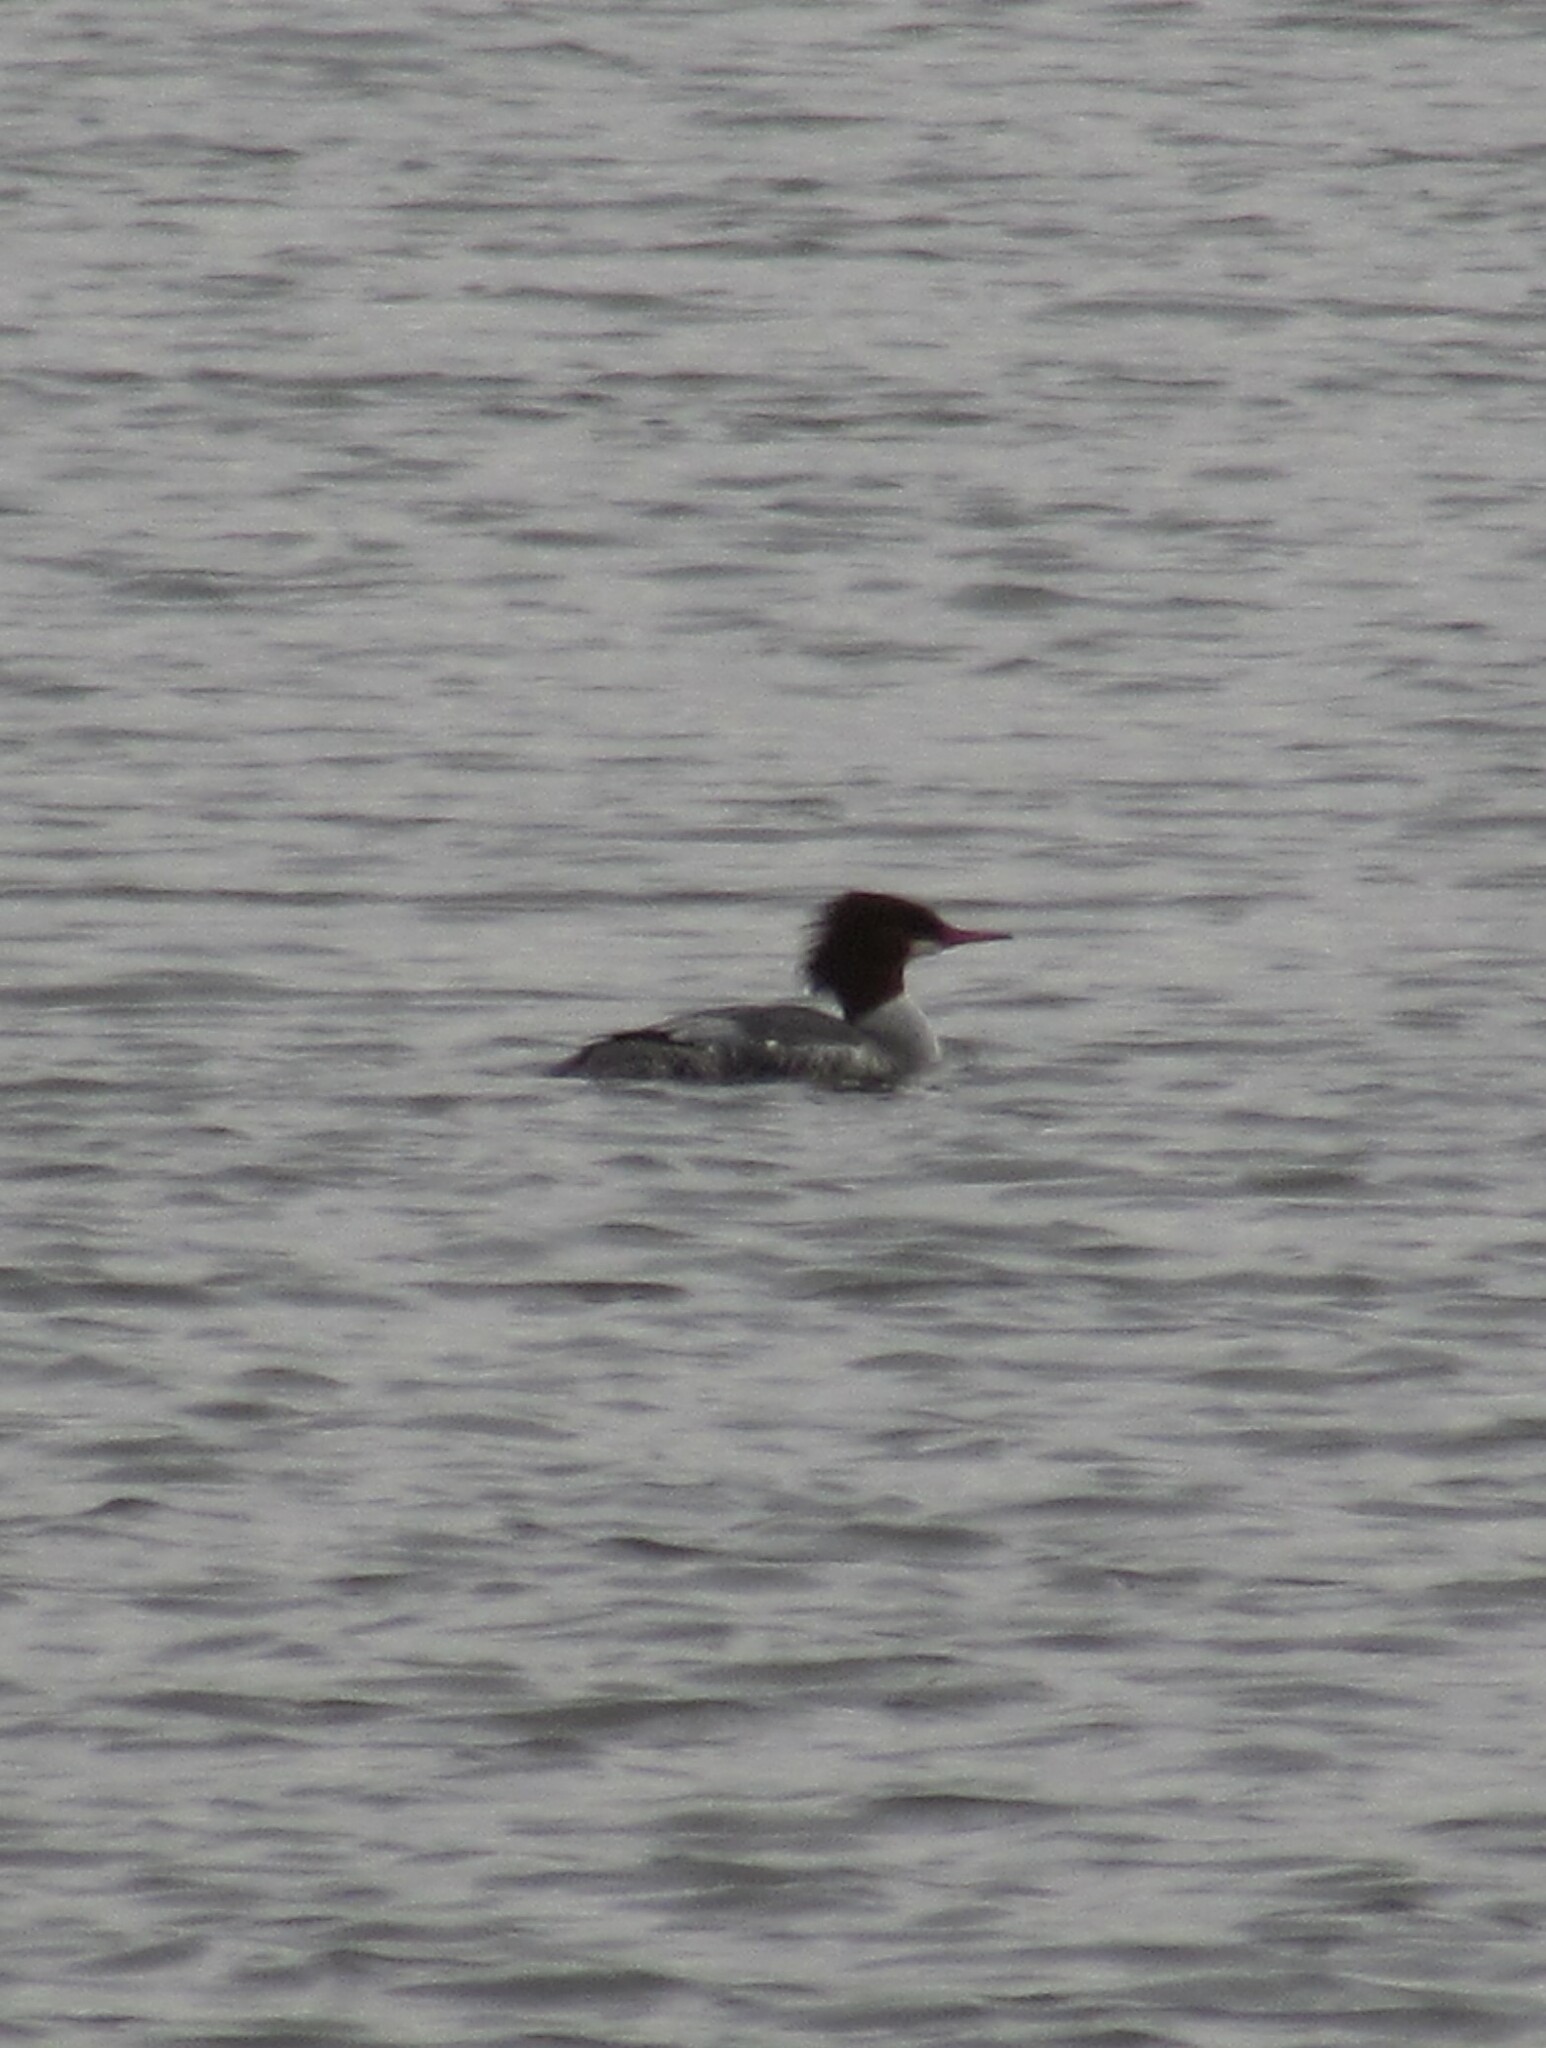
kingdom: Animalia
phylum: Chordata
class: Aves
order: Anseriformes
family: Anatidae
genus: Mergus
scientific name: Mergus merganser
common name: Common merganser
